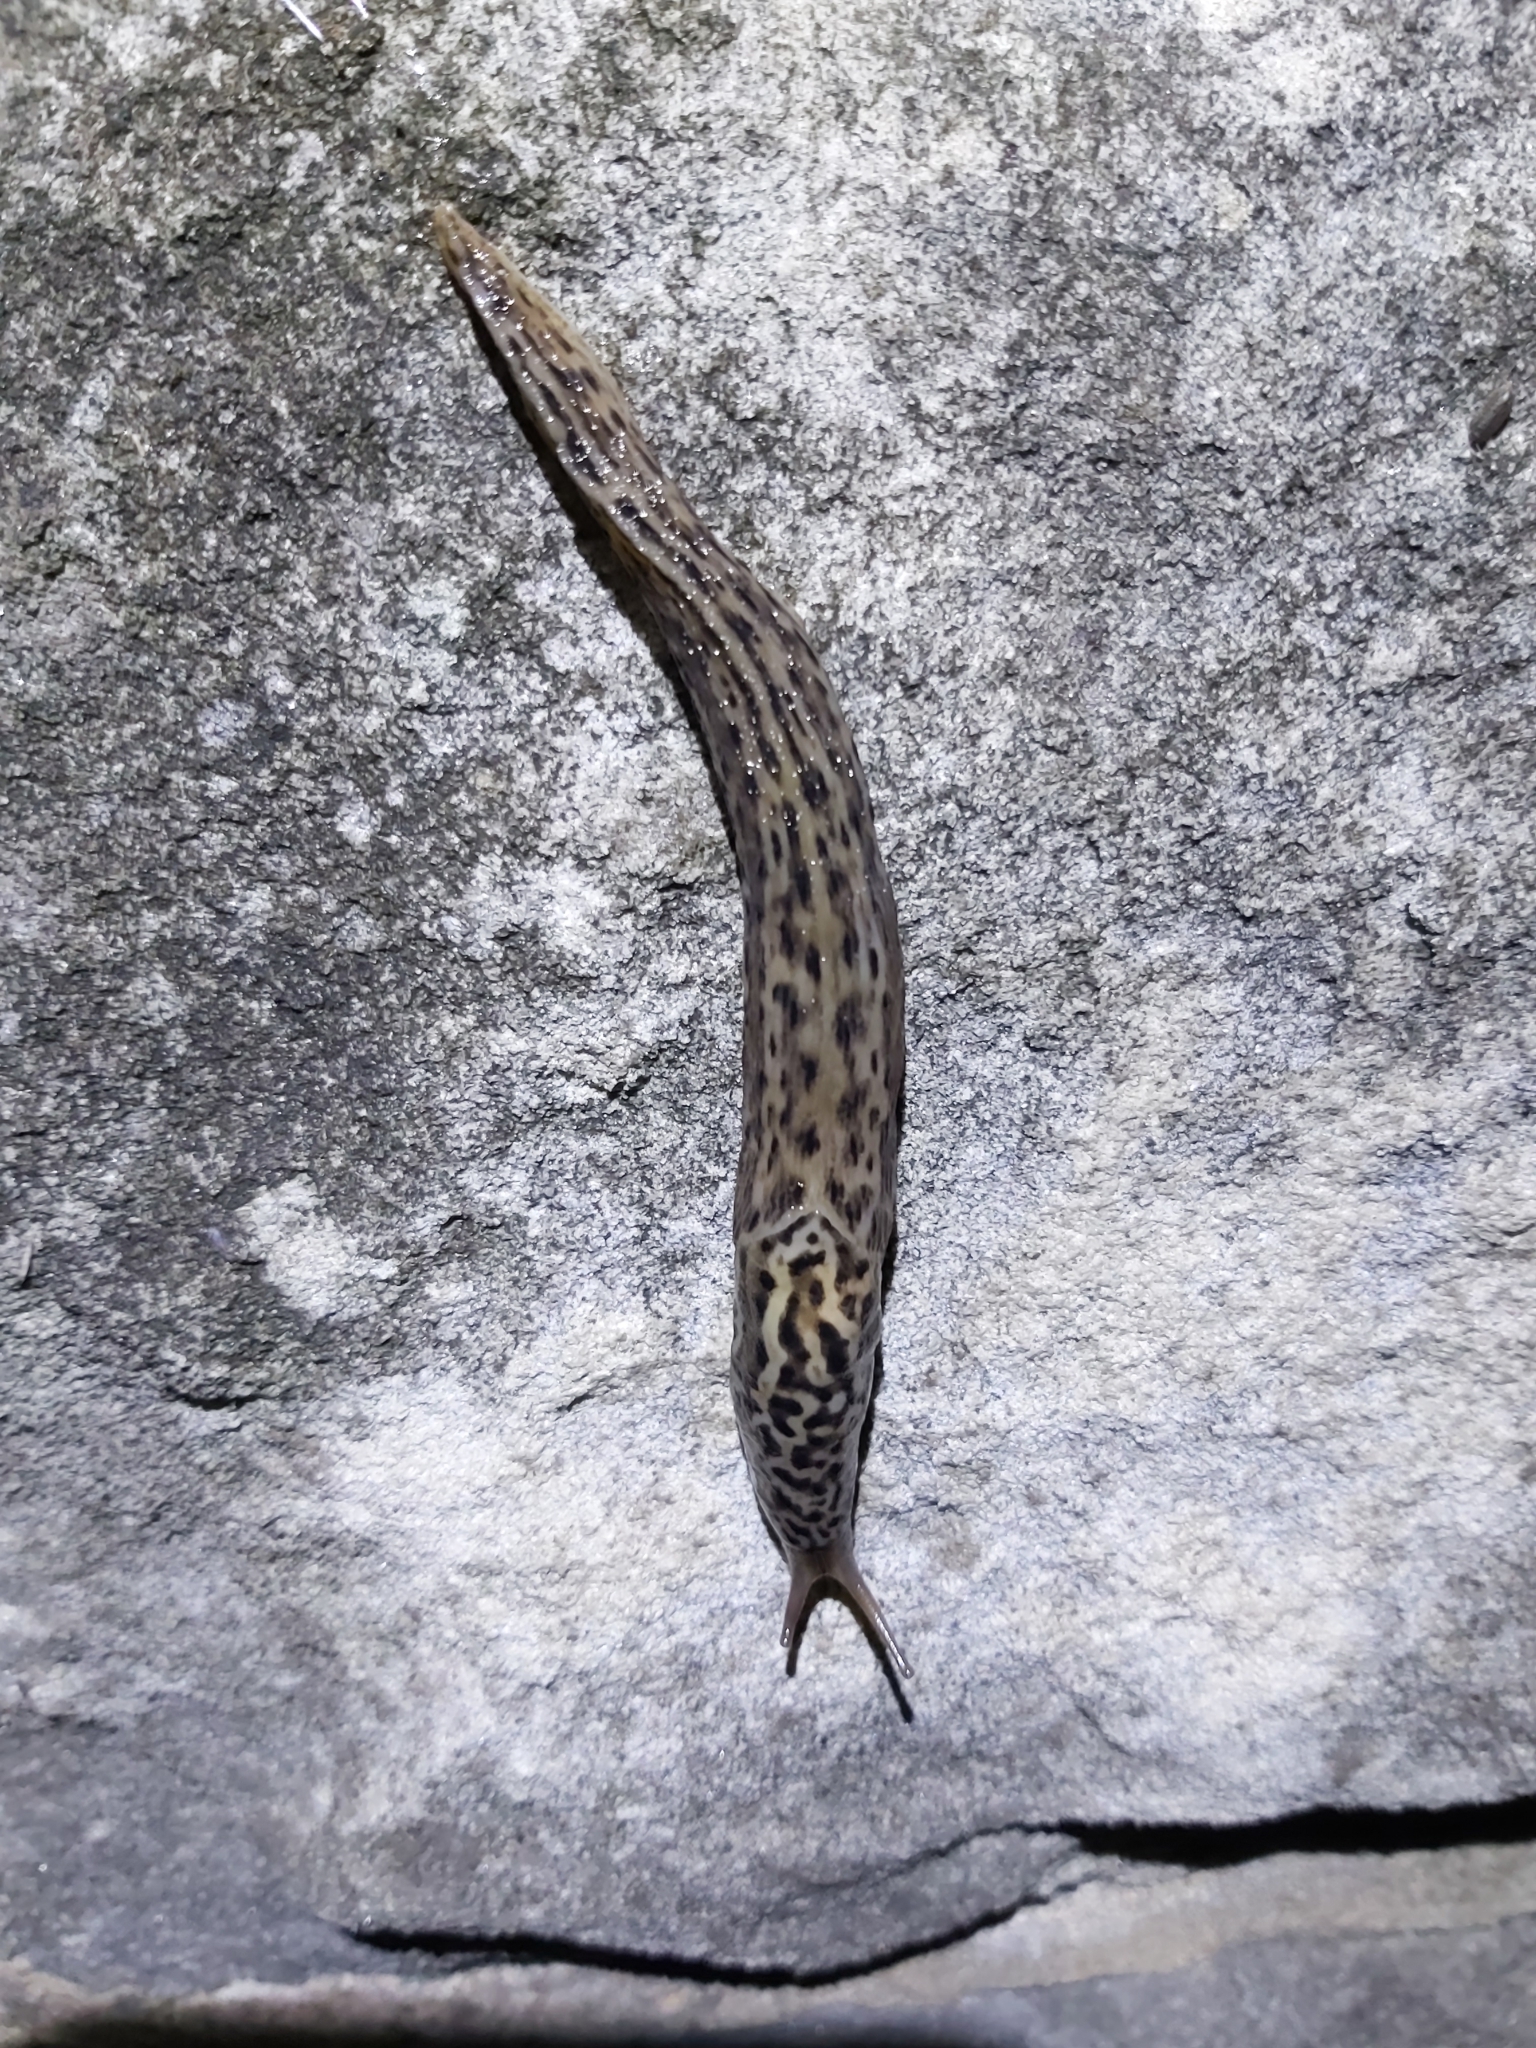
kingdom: Animalia
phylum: Mollusca
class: Gastropoda
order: Stylommatophora
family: Limacidae
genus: Limax
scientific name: Limax maximus
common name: Great grey slug
